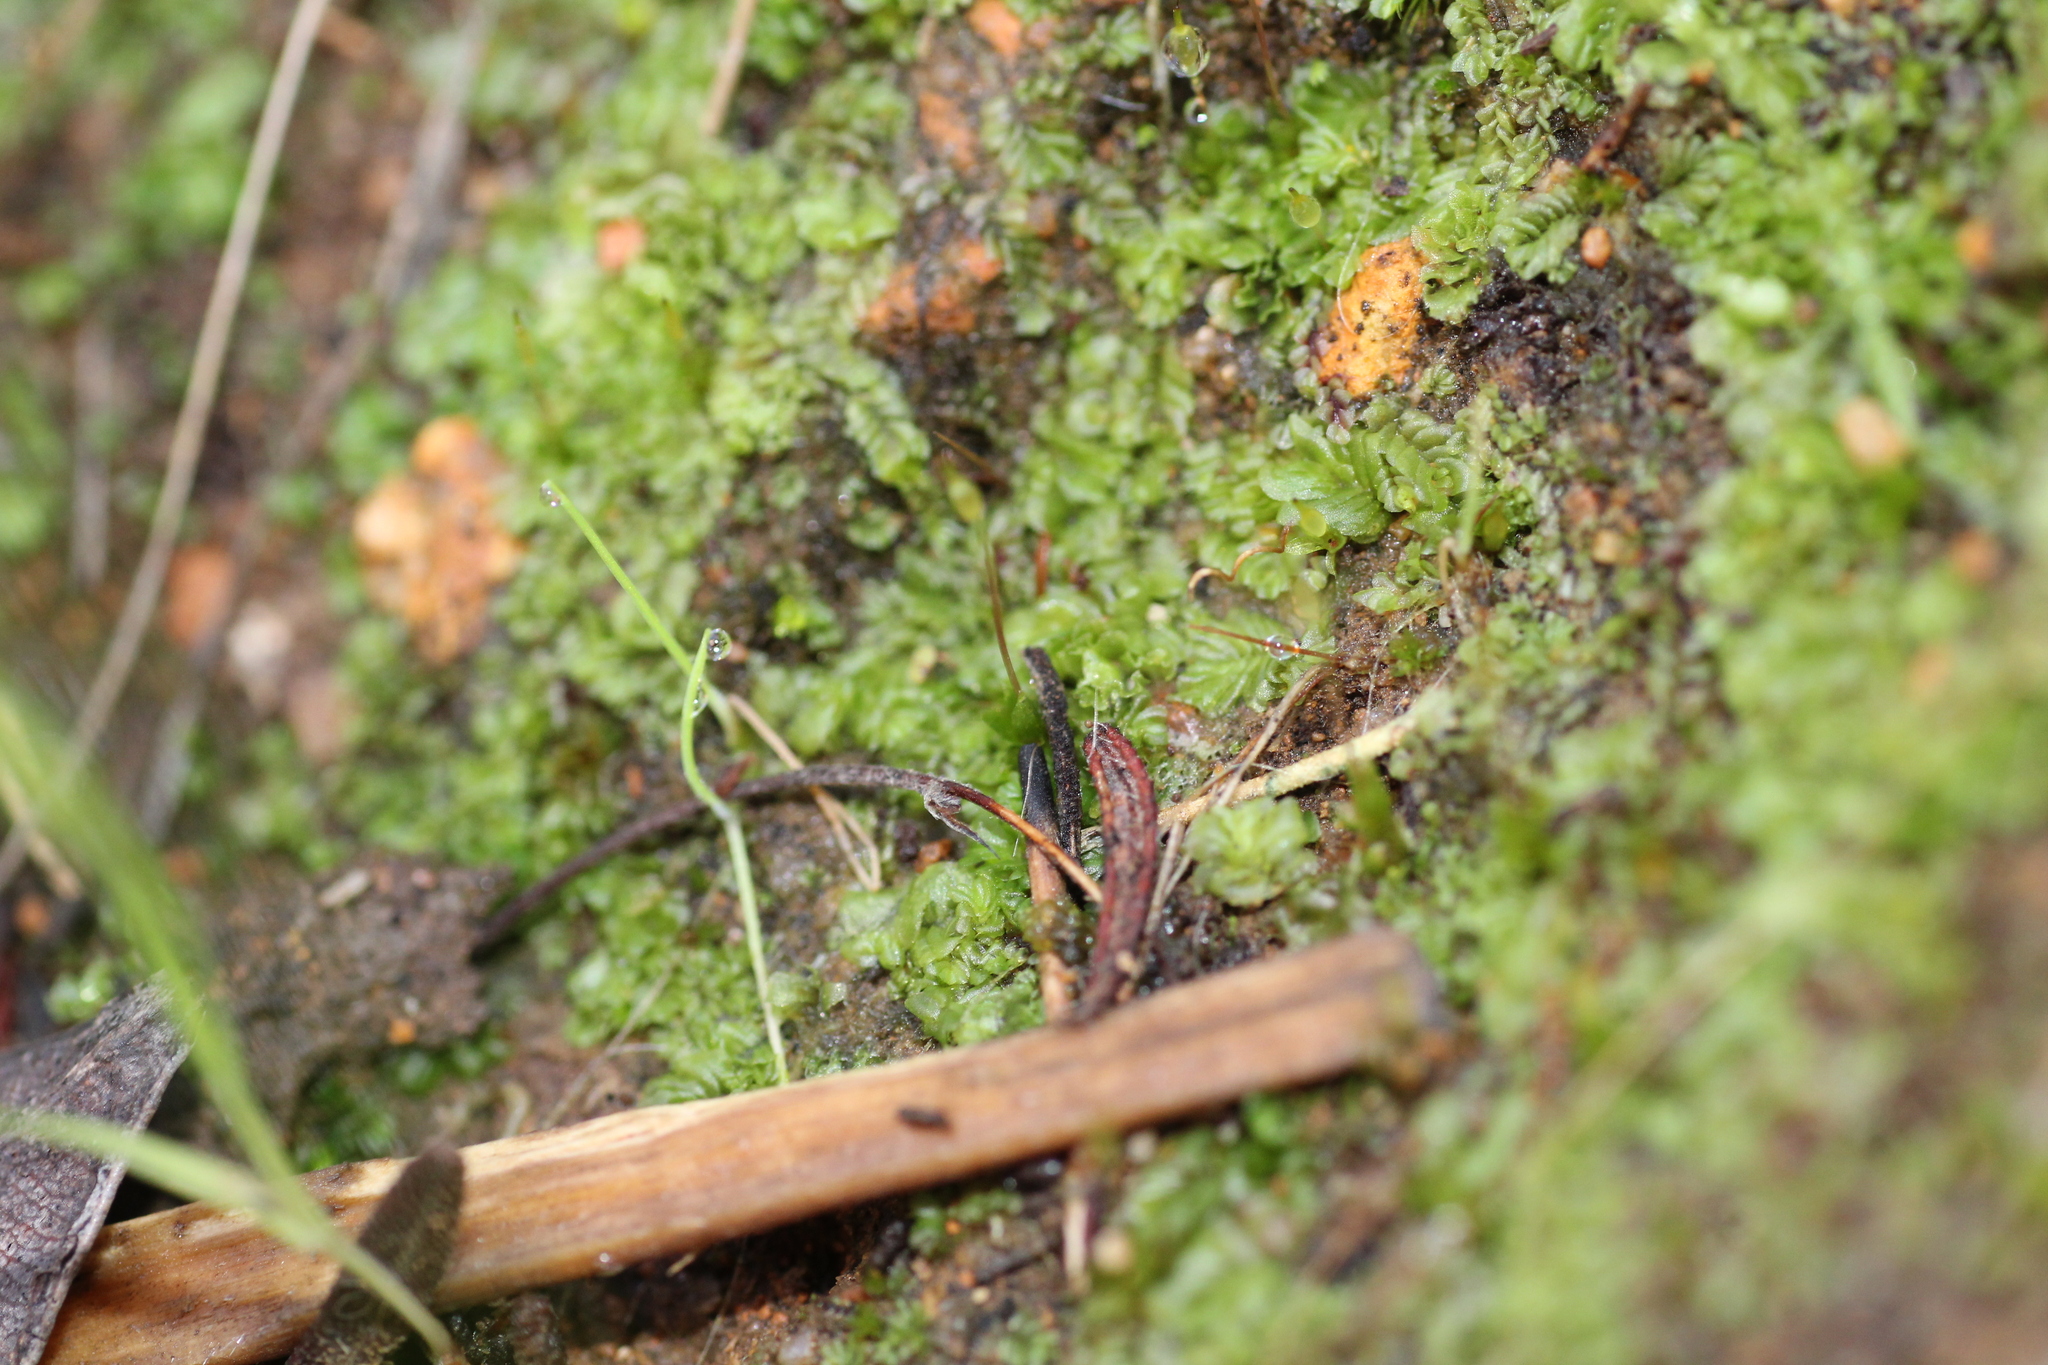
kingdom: Plantae
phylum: Marchantiophyta
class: Jungermanniopsida
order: Jungermanniales
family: Acrobolbaceae
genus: Lethocolea
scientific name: Lethocolea pansa
